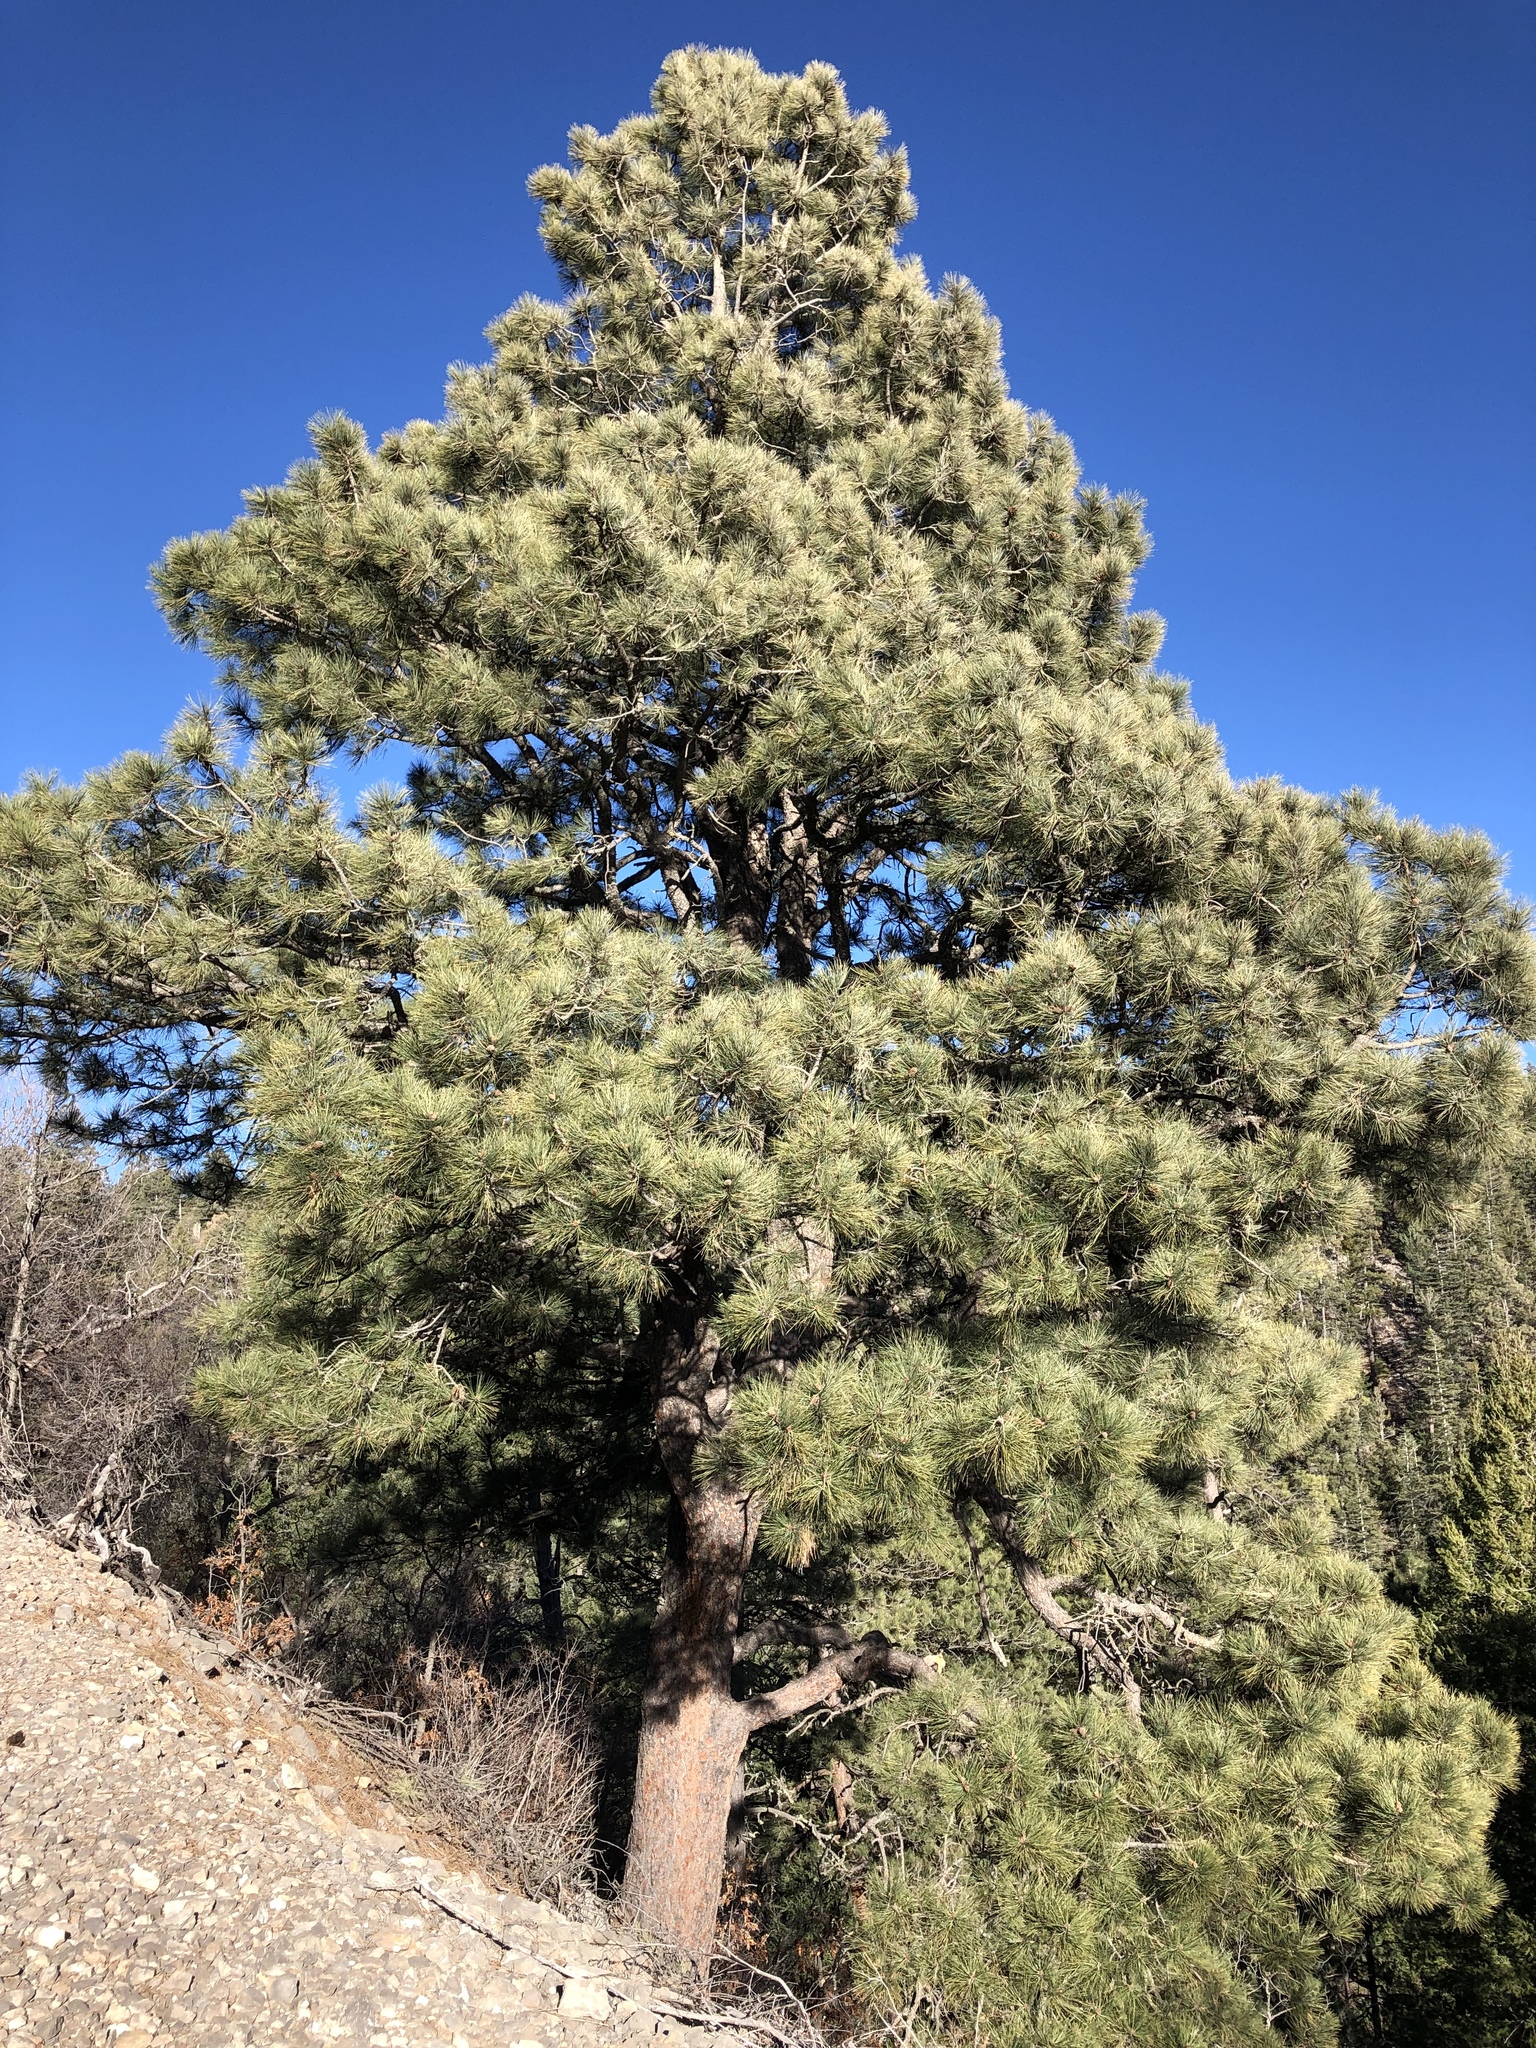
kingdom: Plantae
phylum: Tracheophyta
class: Pinopsida
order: Pinales
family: Pinaceae
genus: Pinus
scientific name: Pinus ponderosa
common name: Western yellow-pine
